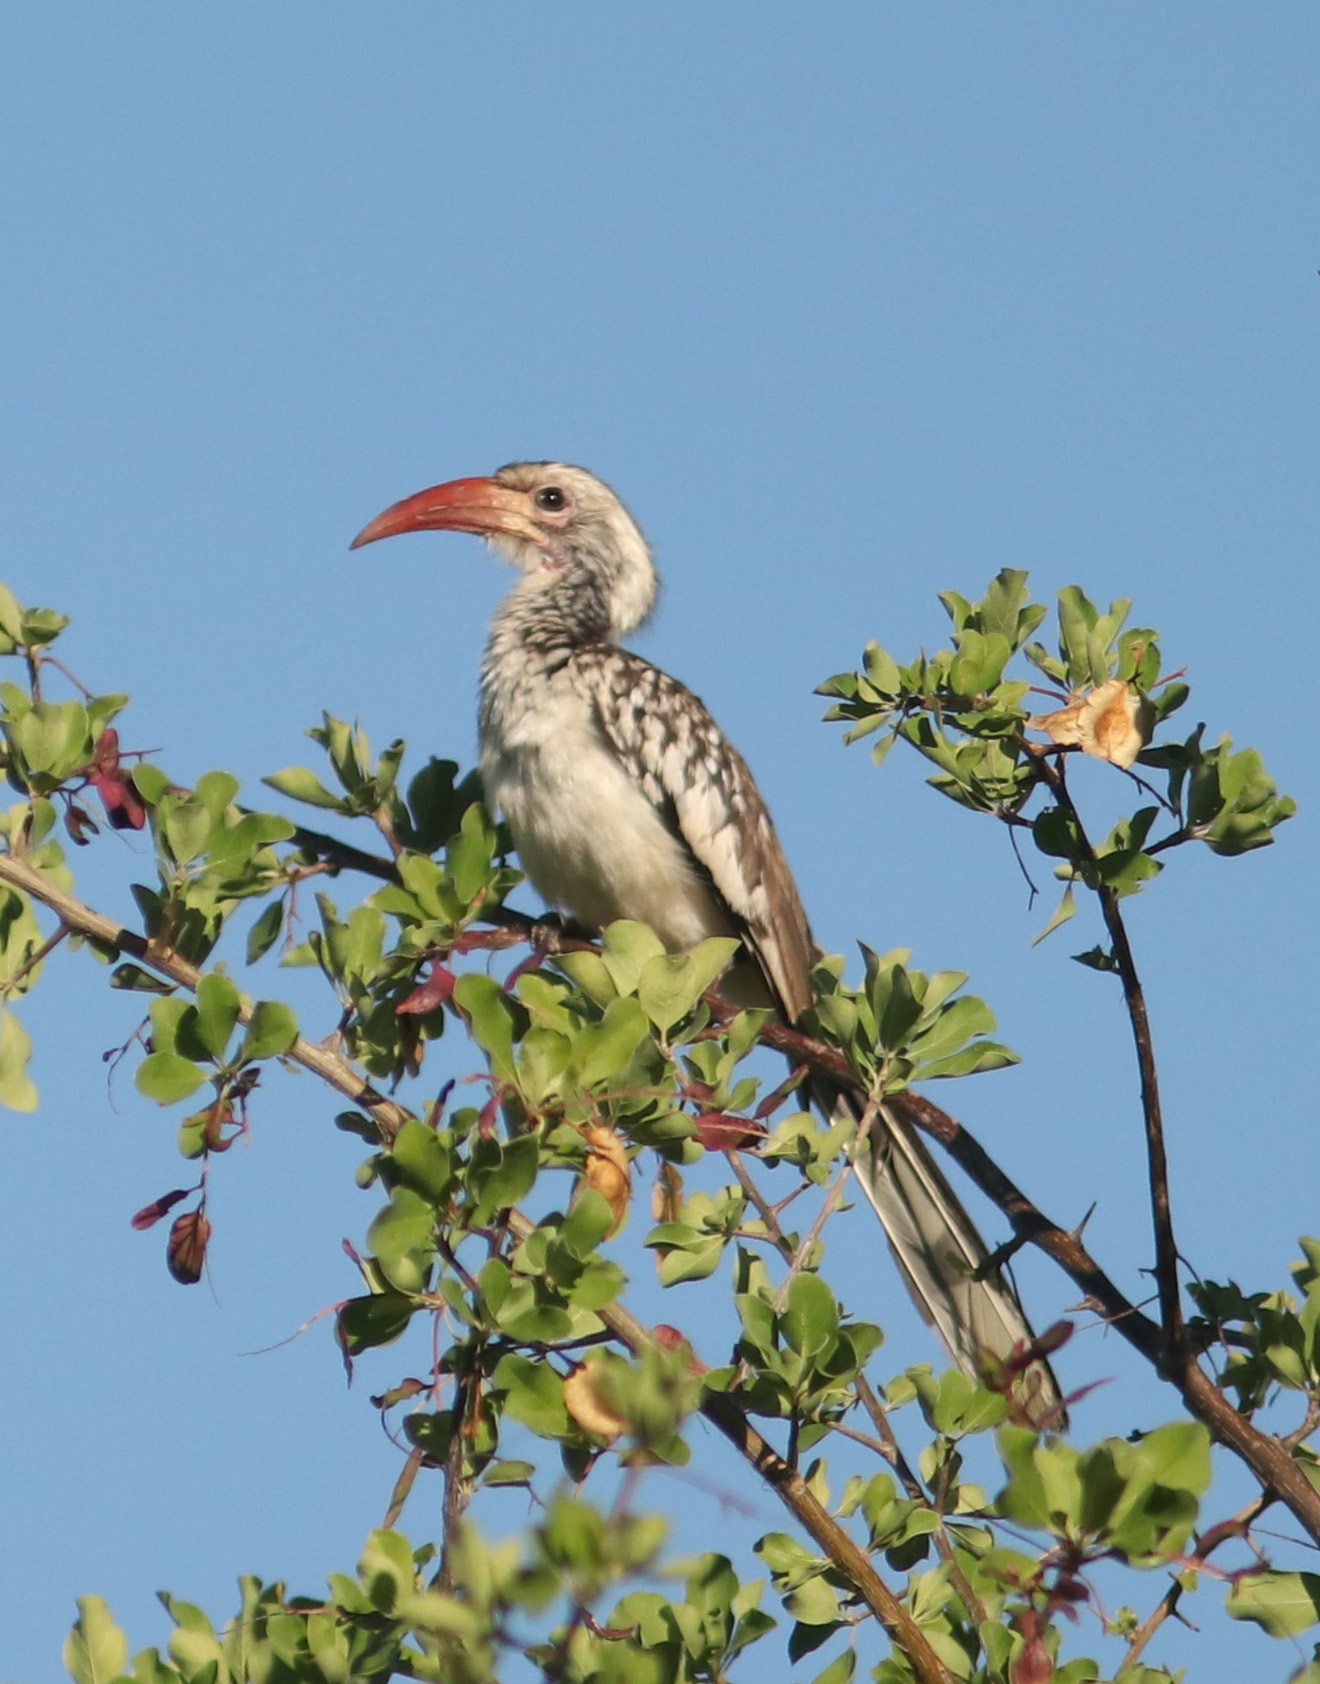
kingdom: Animalia
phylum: Chordata
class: Aves
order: Bucerotiformes
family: Bucerotidae
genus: Tockus
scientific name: Tockus damarensis
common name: Damara red-billed hornbill
